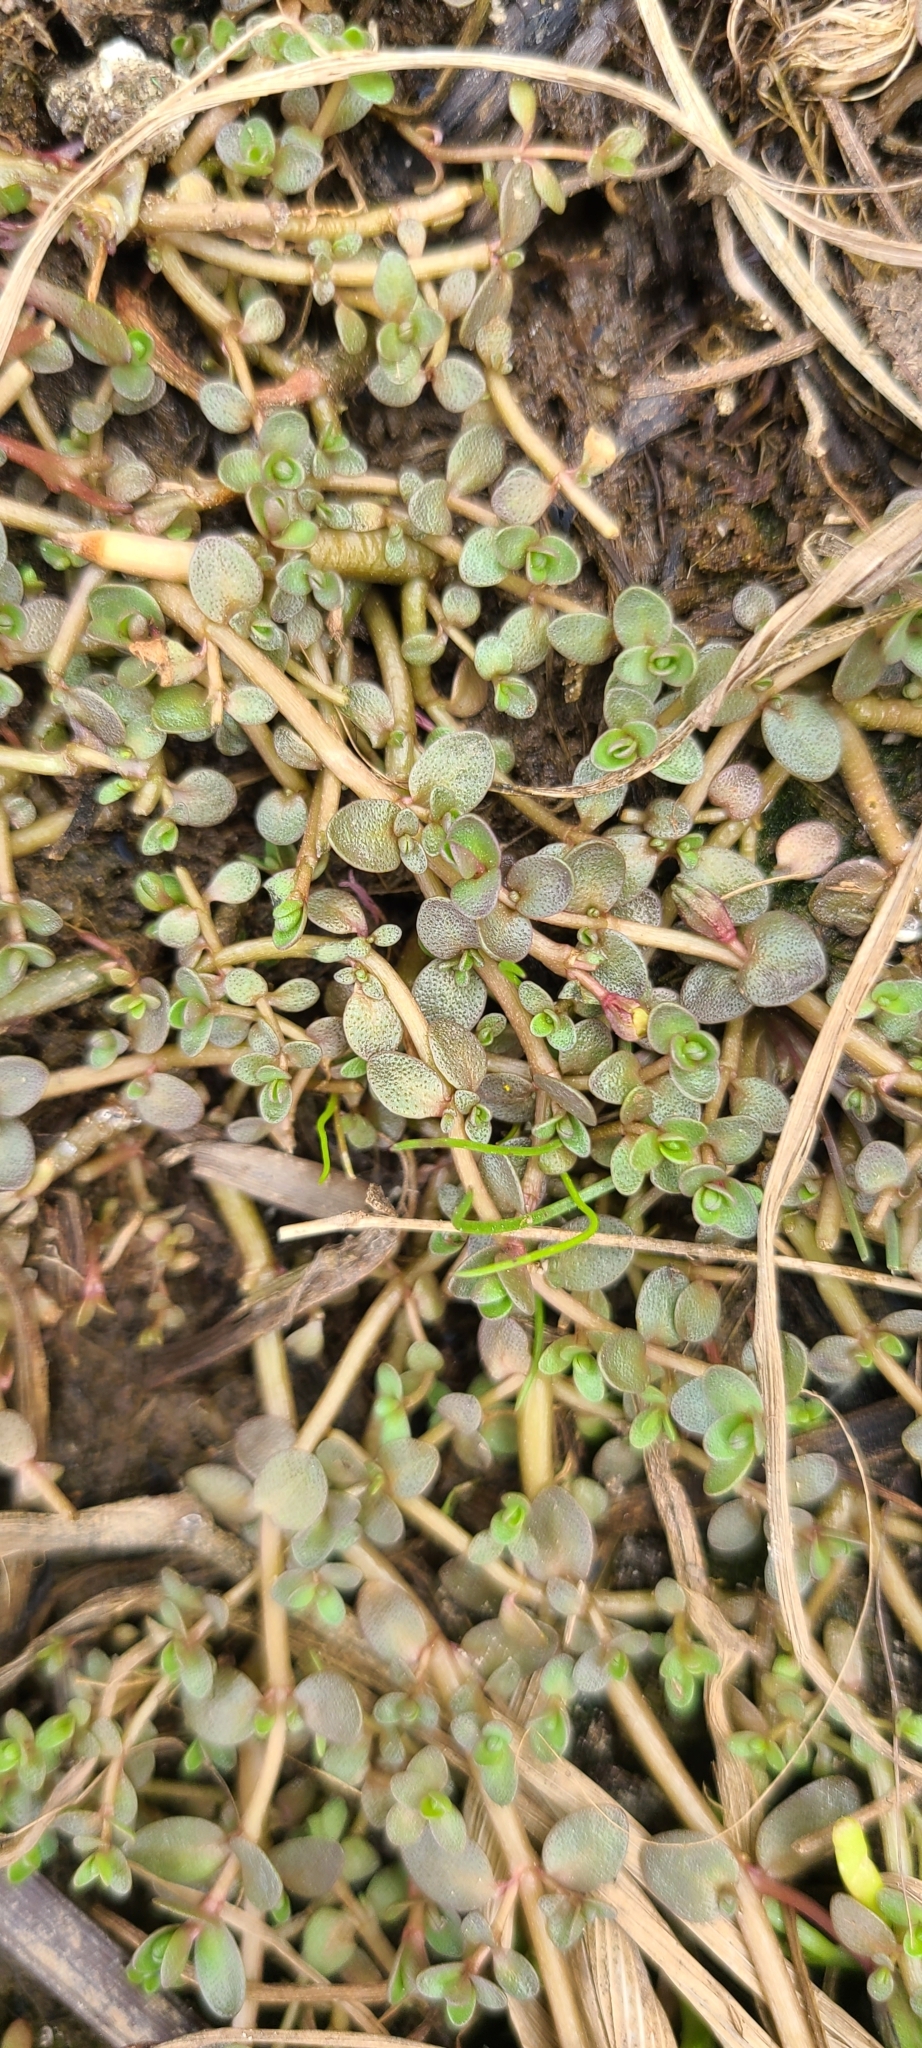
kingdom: Plantae
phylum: Tracheophyta
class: Magnoliopsida
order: Lamiales
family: Phrymaceae
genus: Thyridia
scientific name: Thyridia repens
